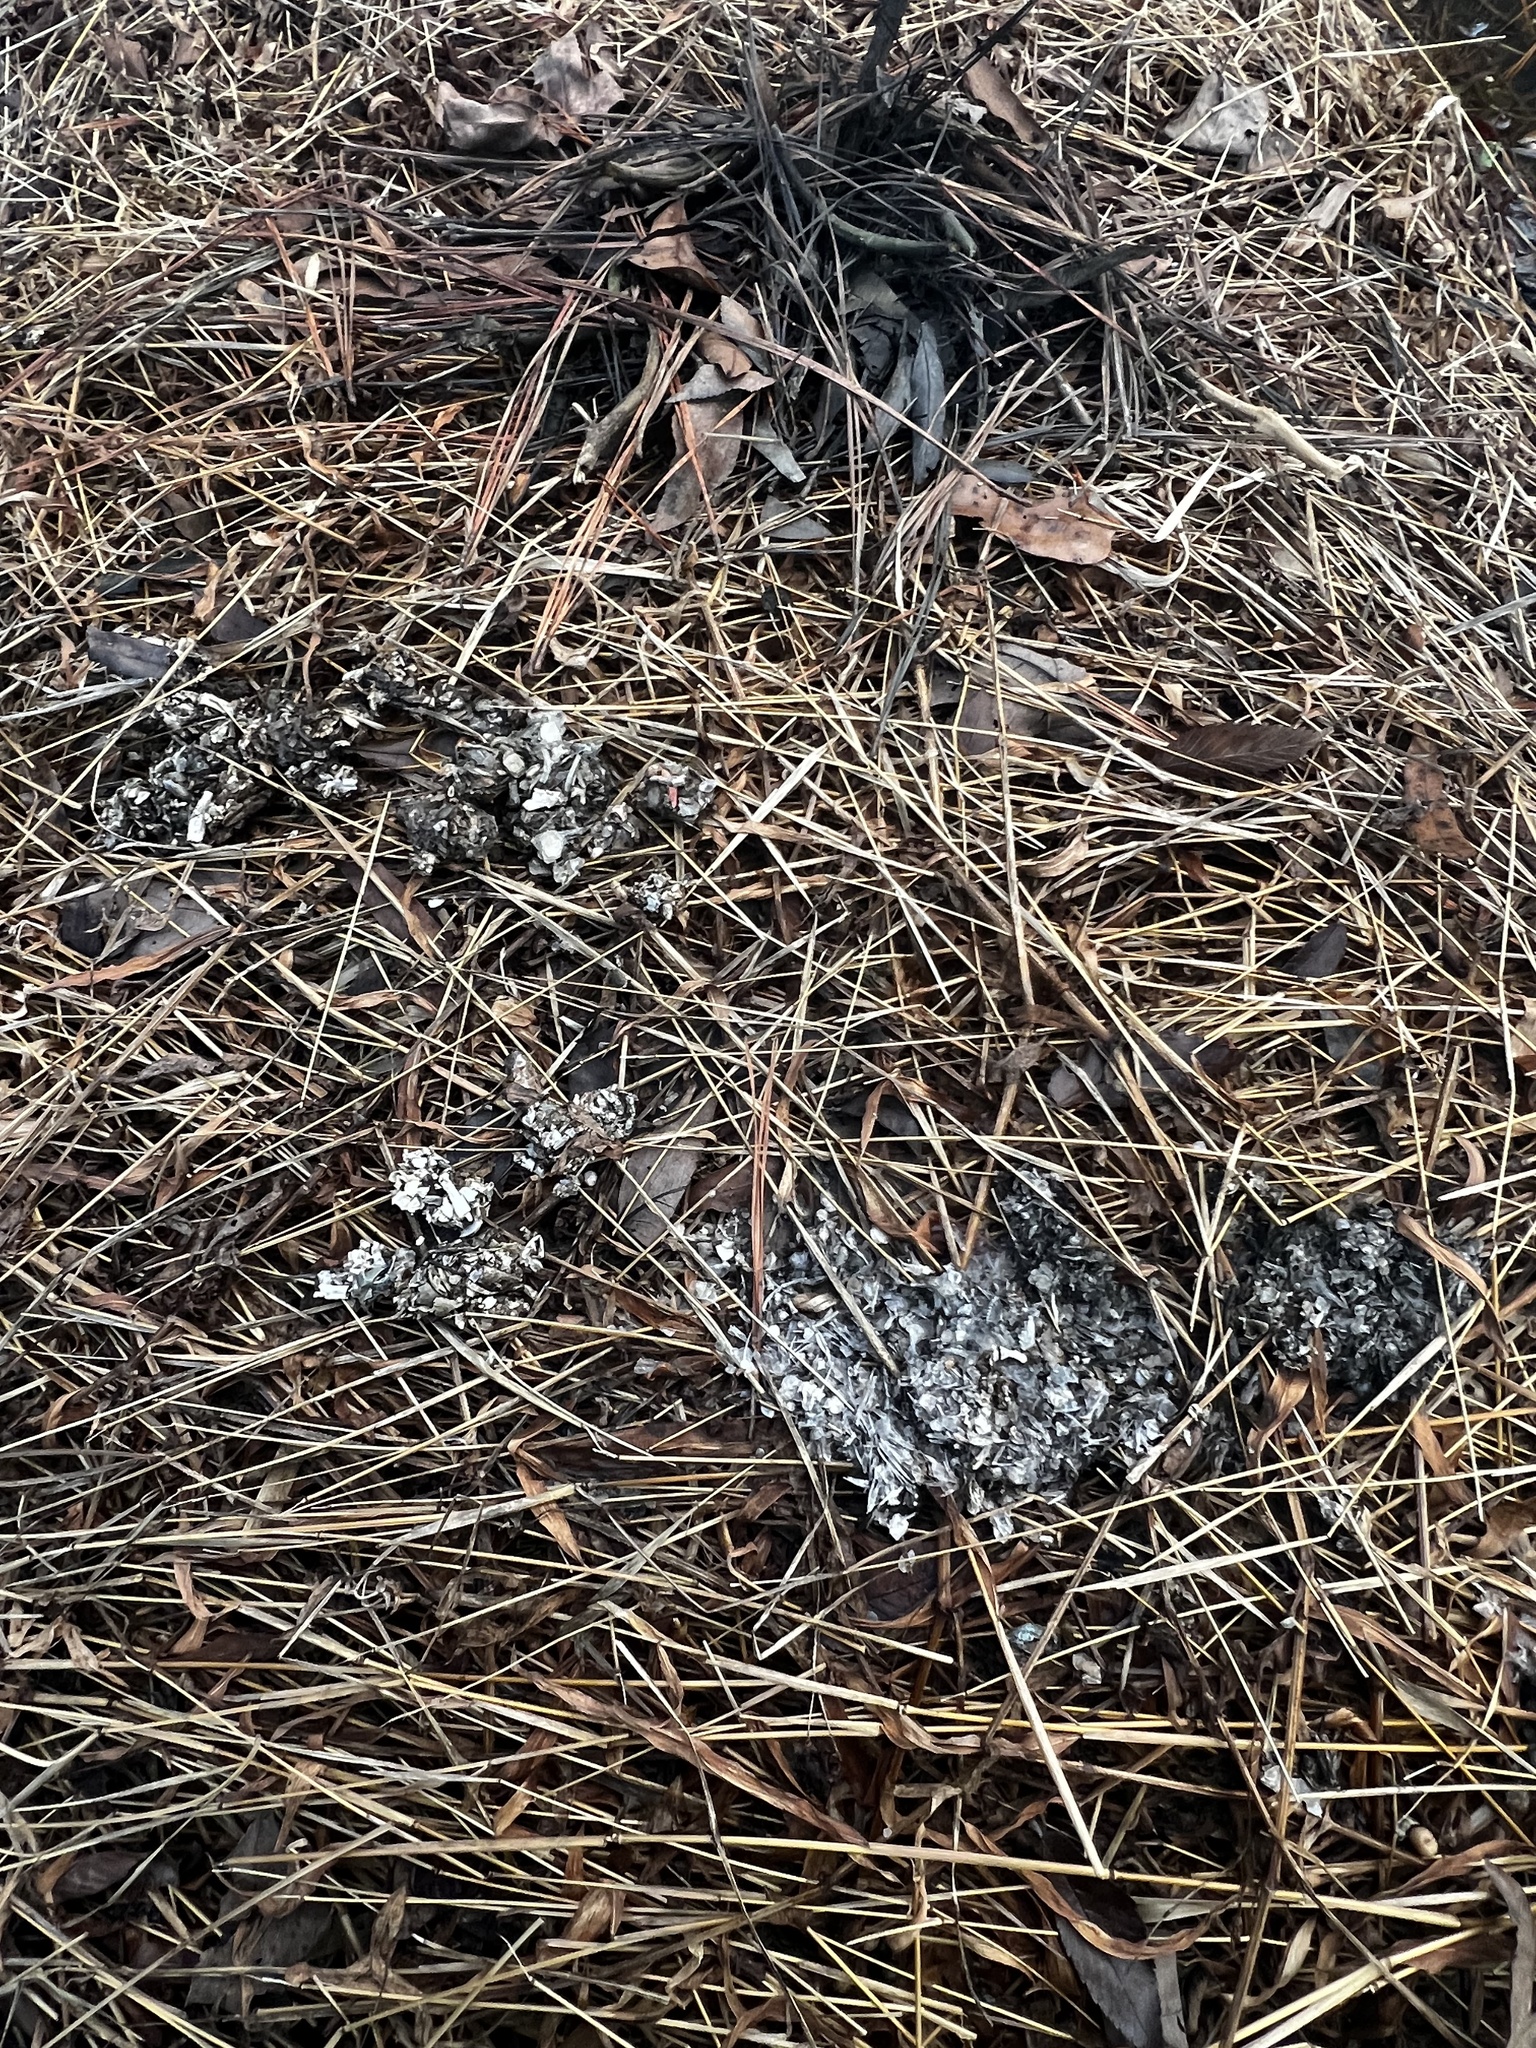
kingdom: Animalia
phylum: Chordata
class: Mammalia
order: Carnivora
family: Mustelidae
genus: Lontra
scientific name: Lontra canadensis
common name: North american river otter
